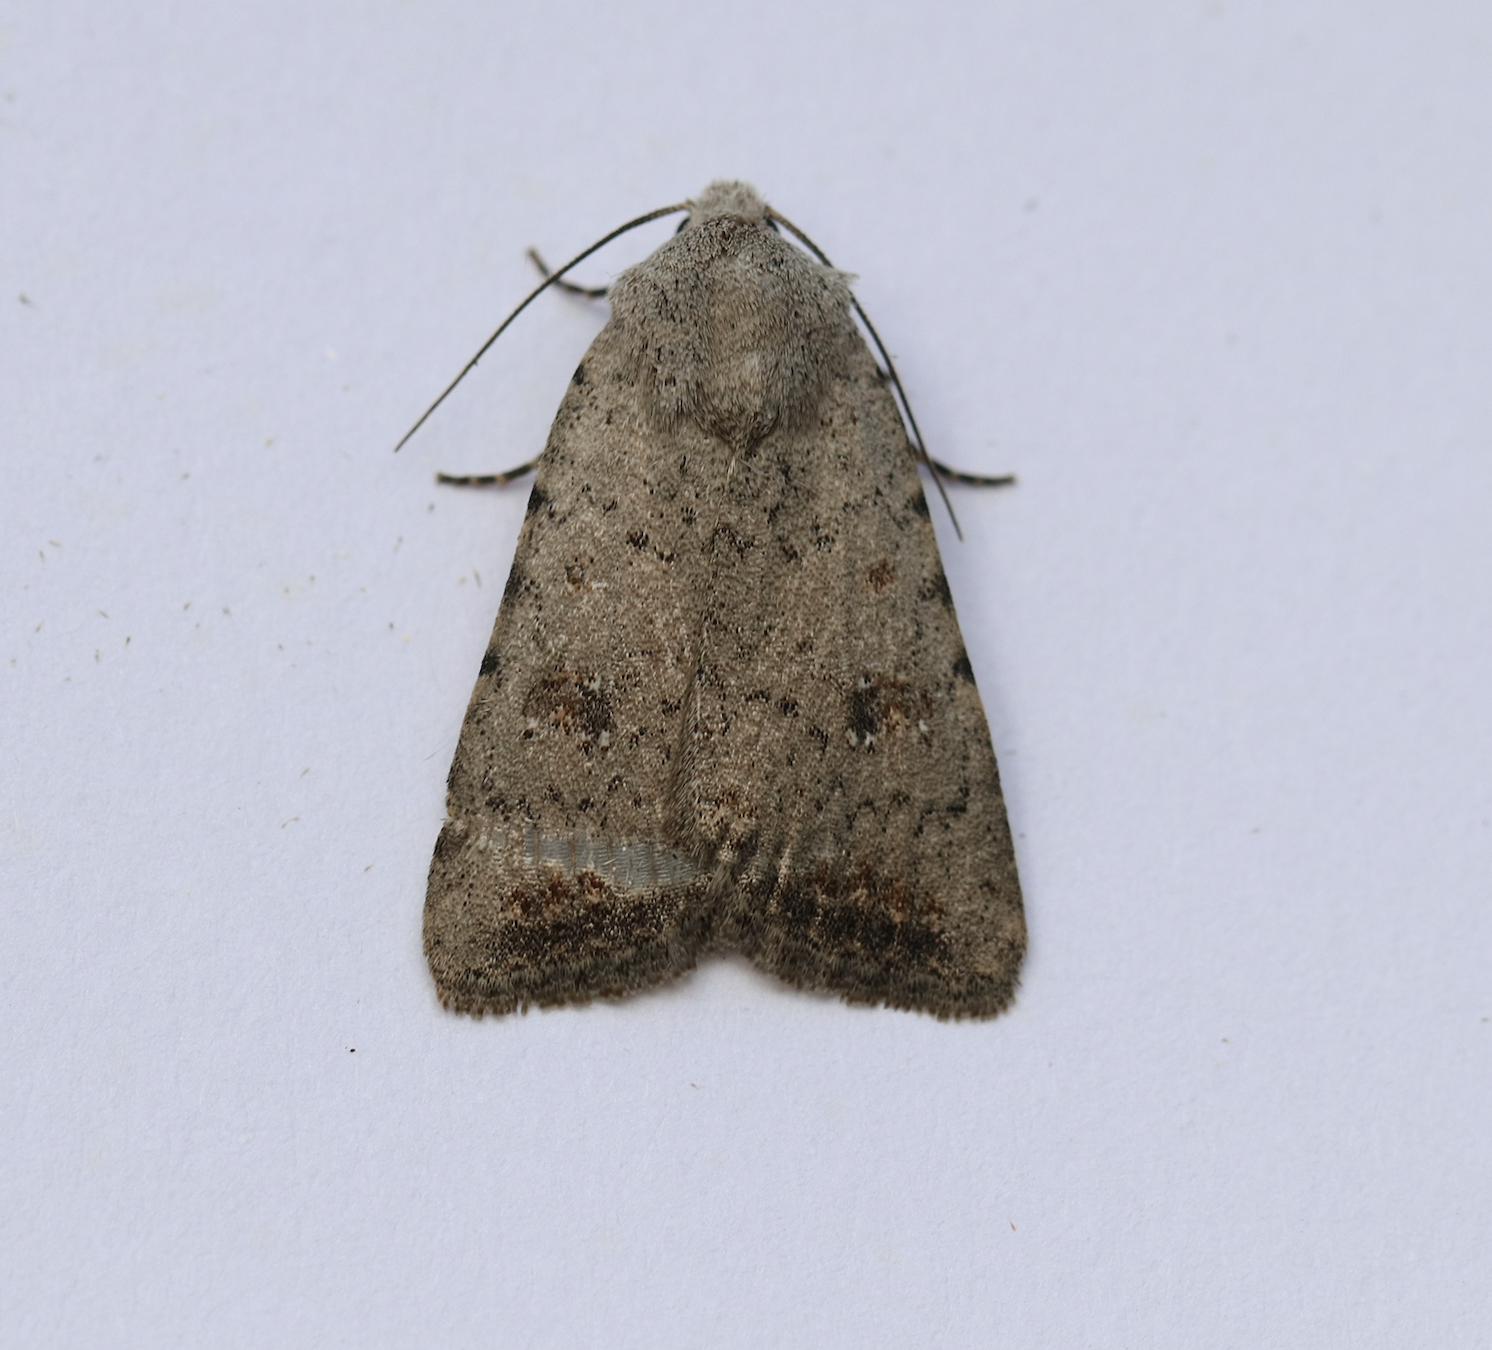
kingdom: Animalia
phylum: Arthropoda
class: Insecta
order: Lepidoptera
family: Noctuidae
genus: Caradrina
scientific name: Caradrina montana
